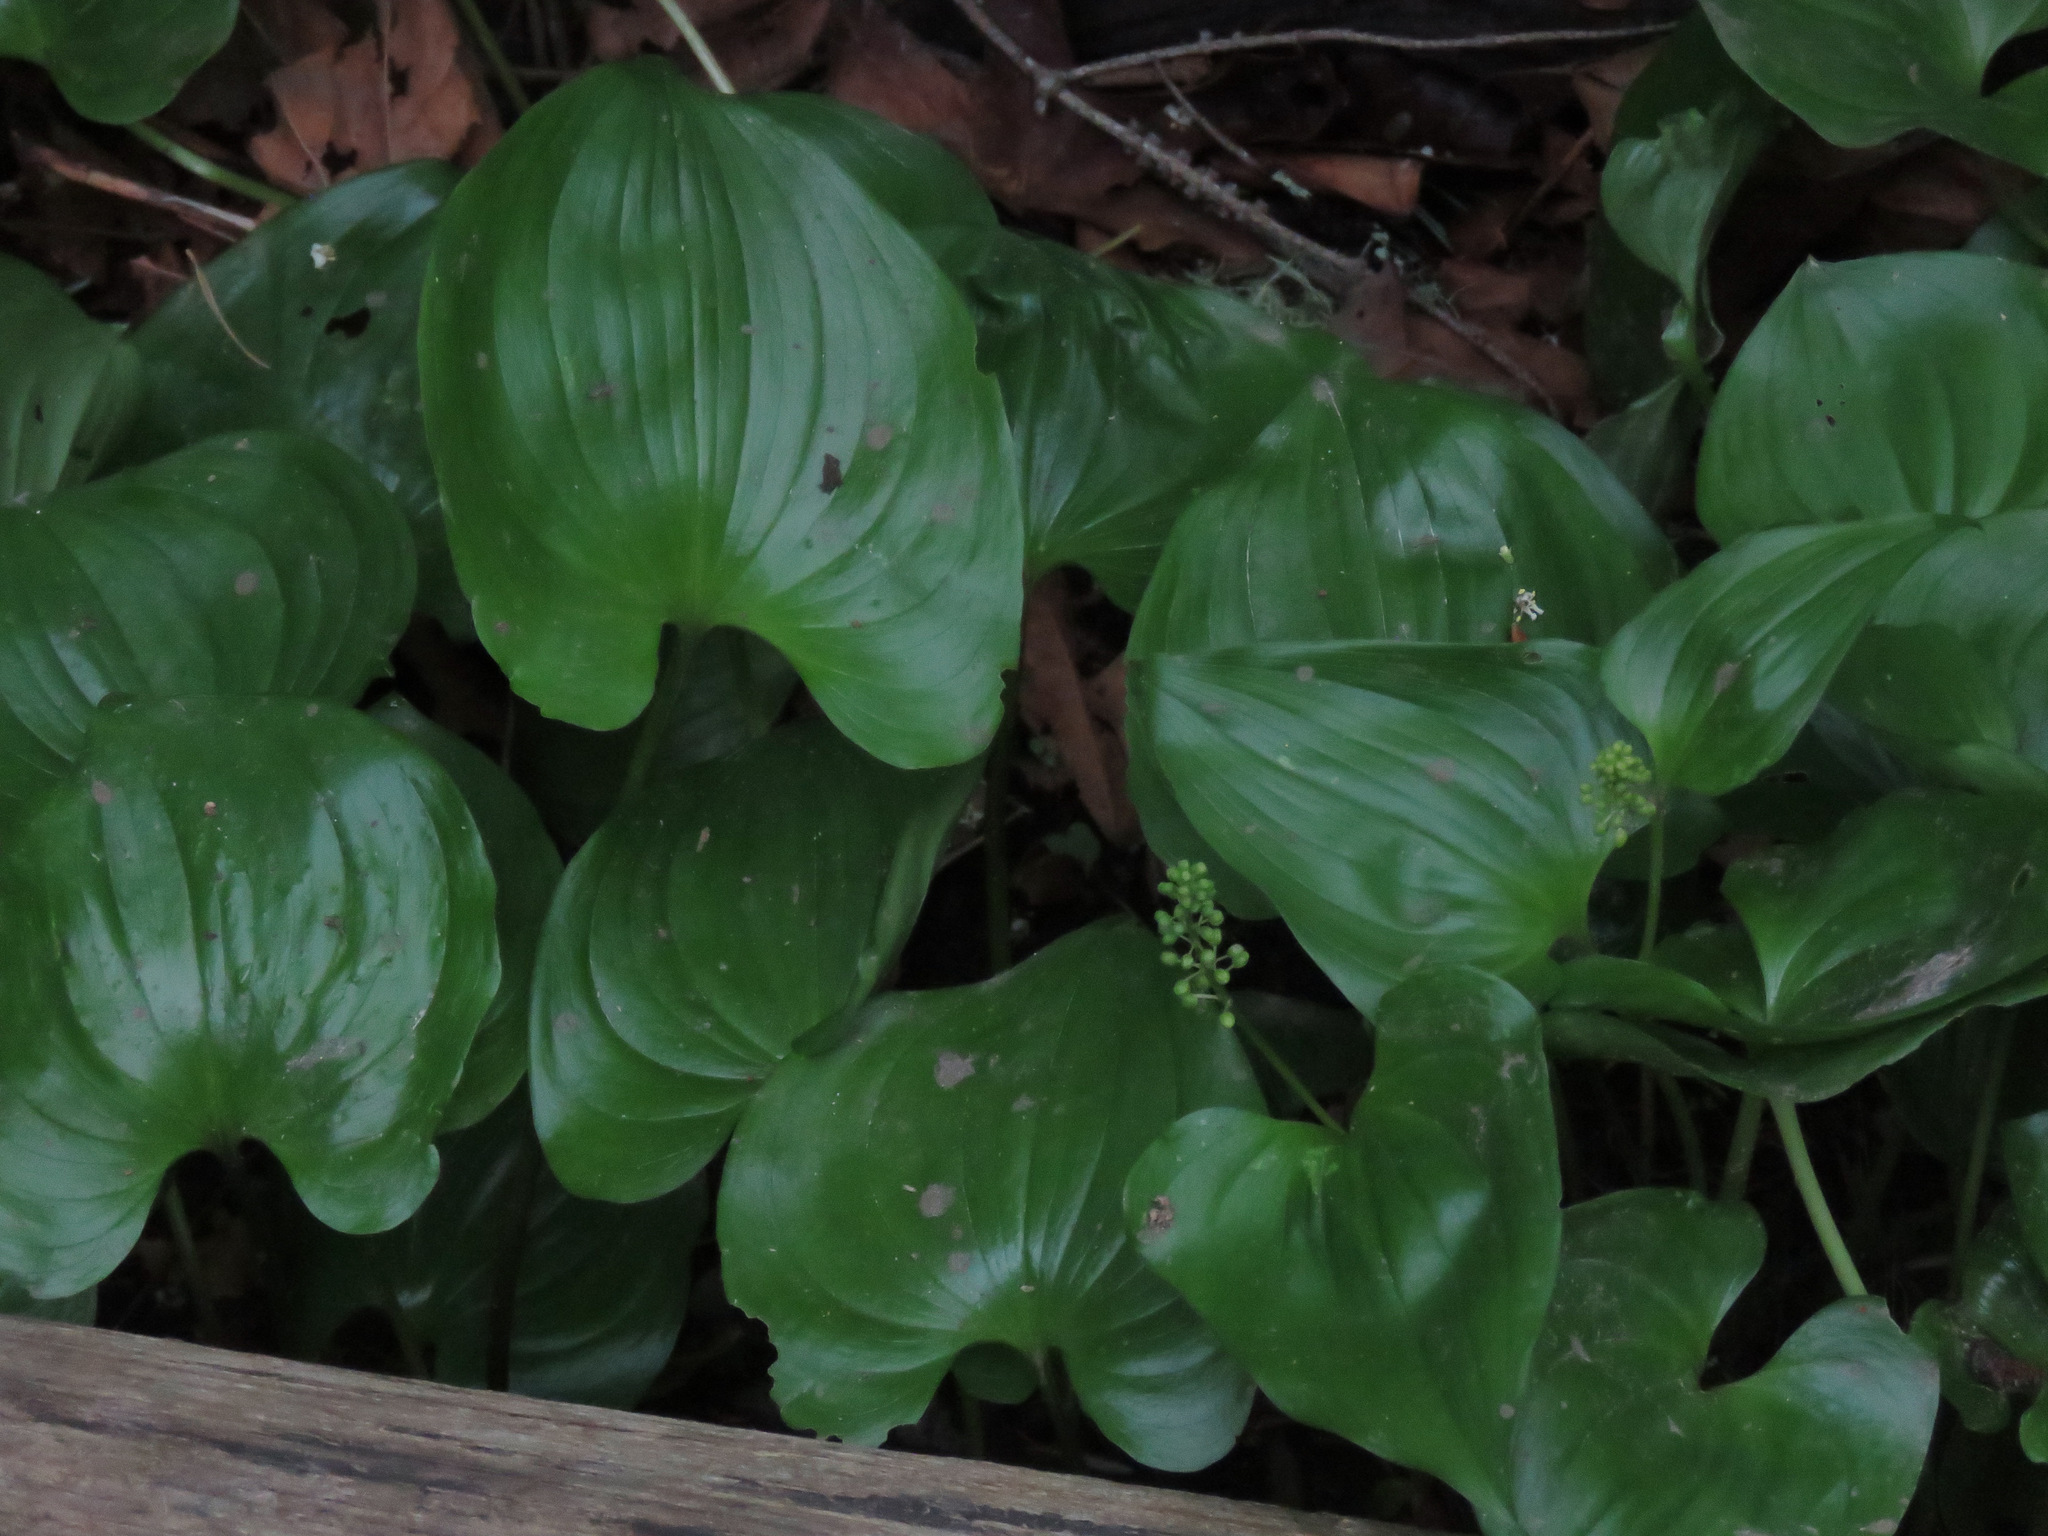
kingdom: Plantae
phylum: Tracheophyta
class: Liliopsida
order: Asparagales
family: Asparagaceae
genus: Maianthemum
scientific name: Maianthemum dilatatum
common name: False lily-of-the-valley
